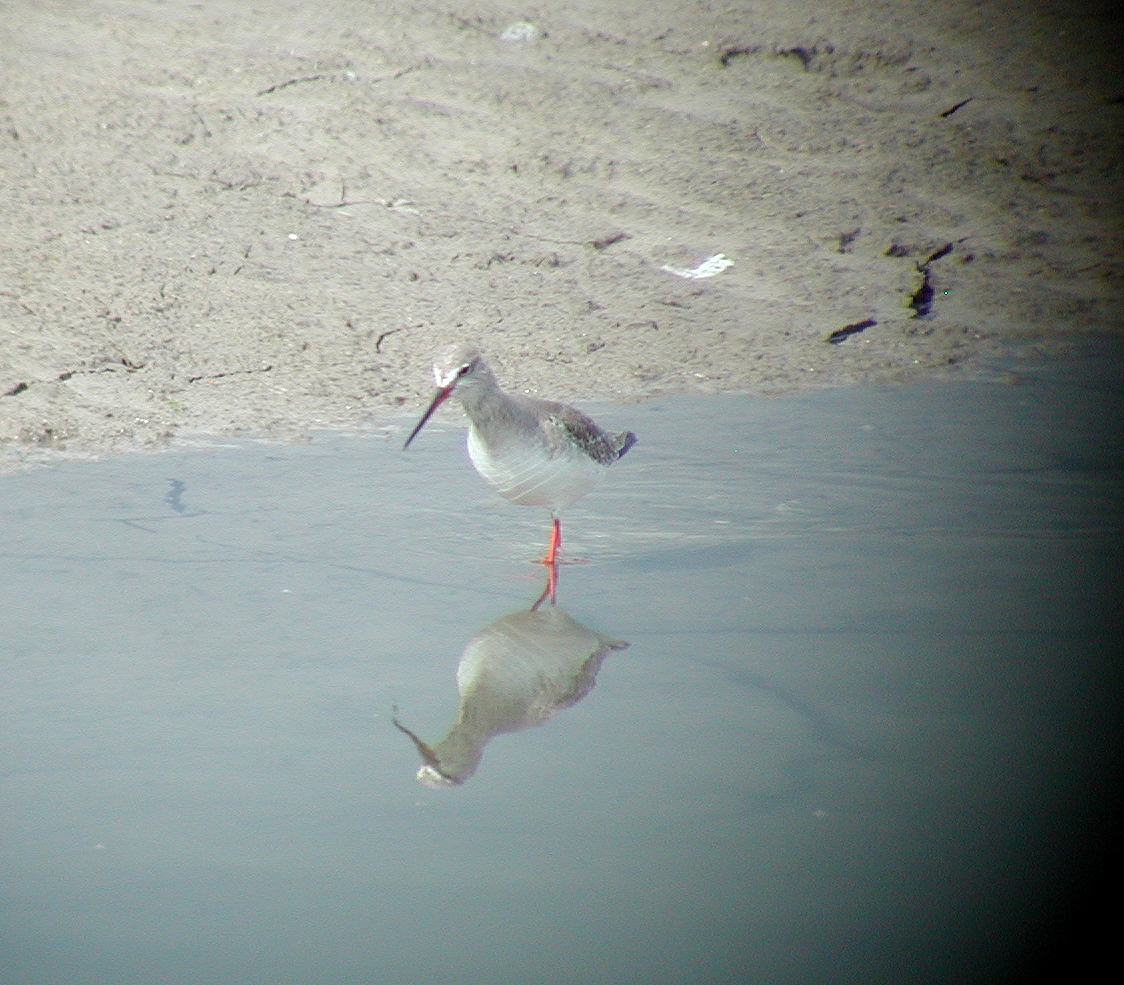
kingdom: Animalia
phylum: Chordata
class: Aves
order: Charadriiformes
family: Scolopacidae
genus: Tringa
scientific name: Tringa erythropus
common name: Spotted redshank
